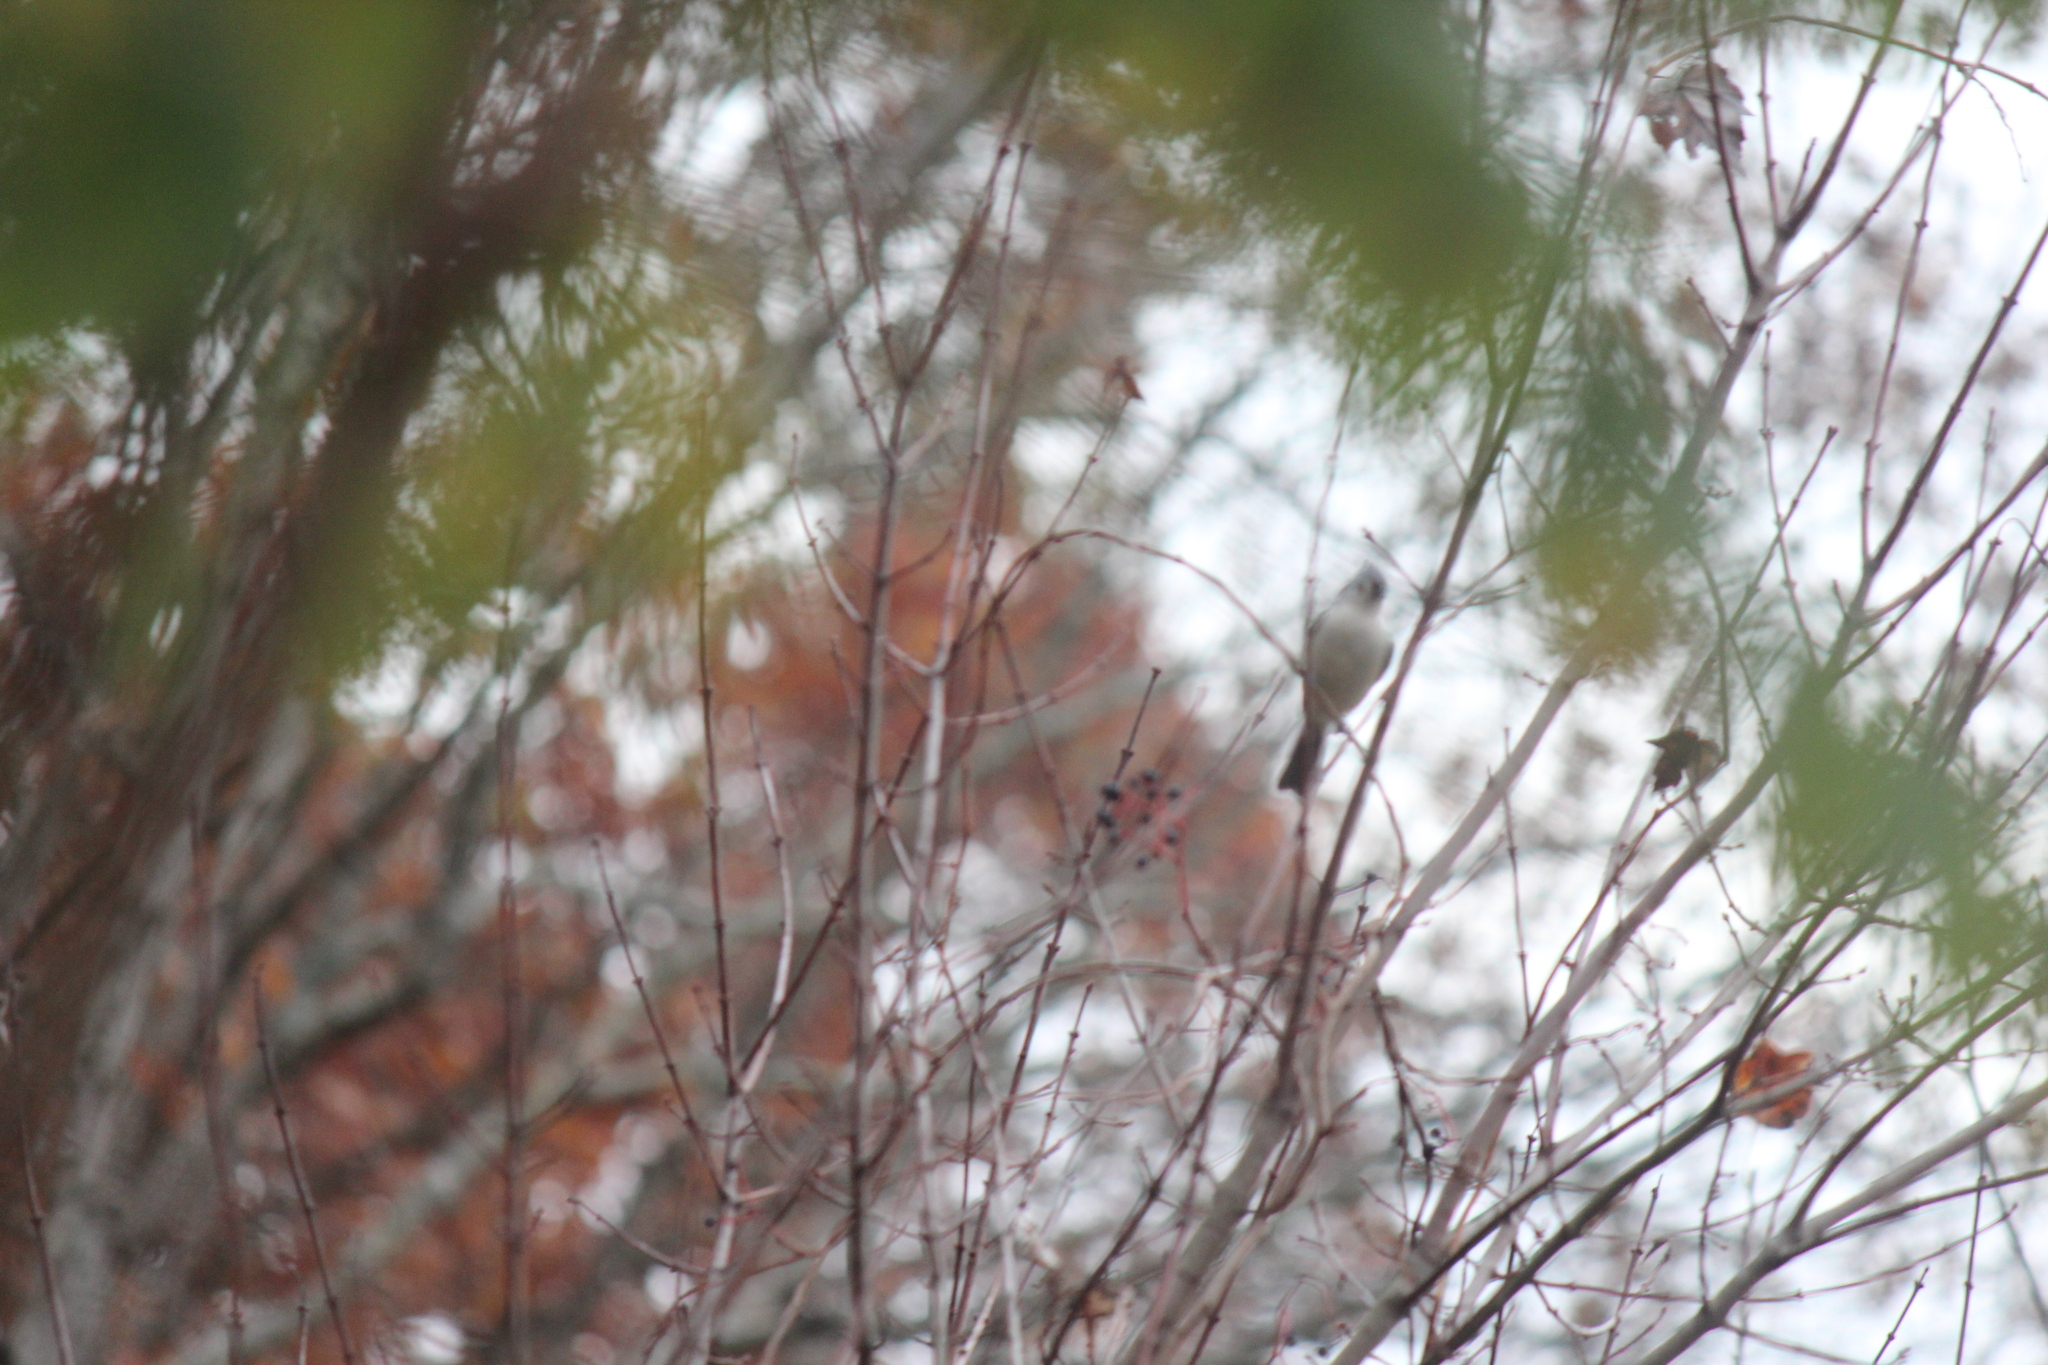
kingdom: Animalia
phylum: Chordata
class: Aves
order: Passeriformes
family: Paridae
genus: Baeolophus
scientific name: Baeolophus bicolor
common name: Tufted titmouse
